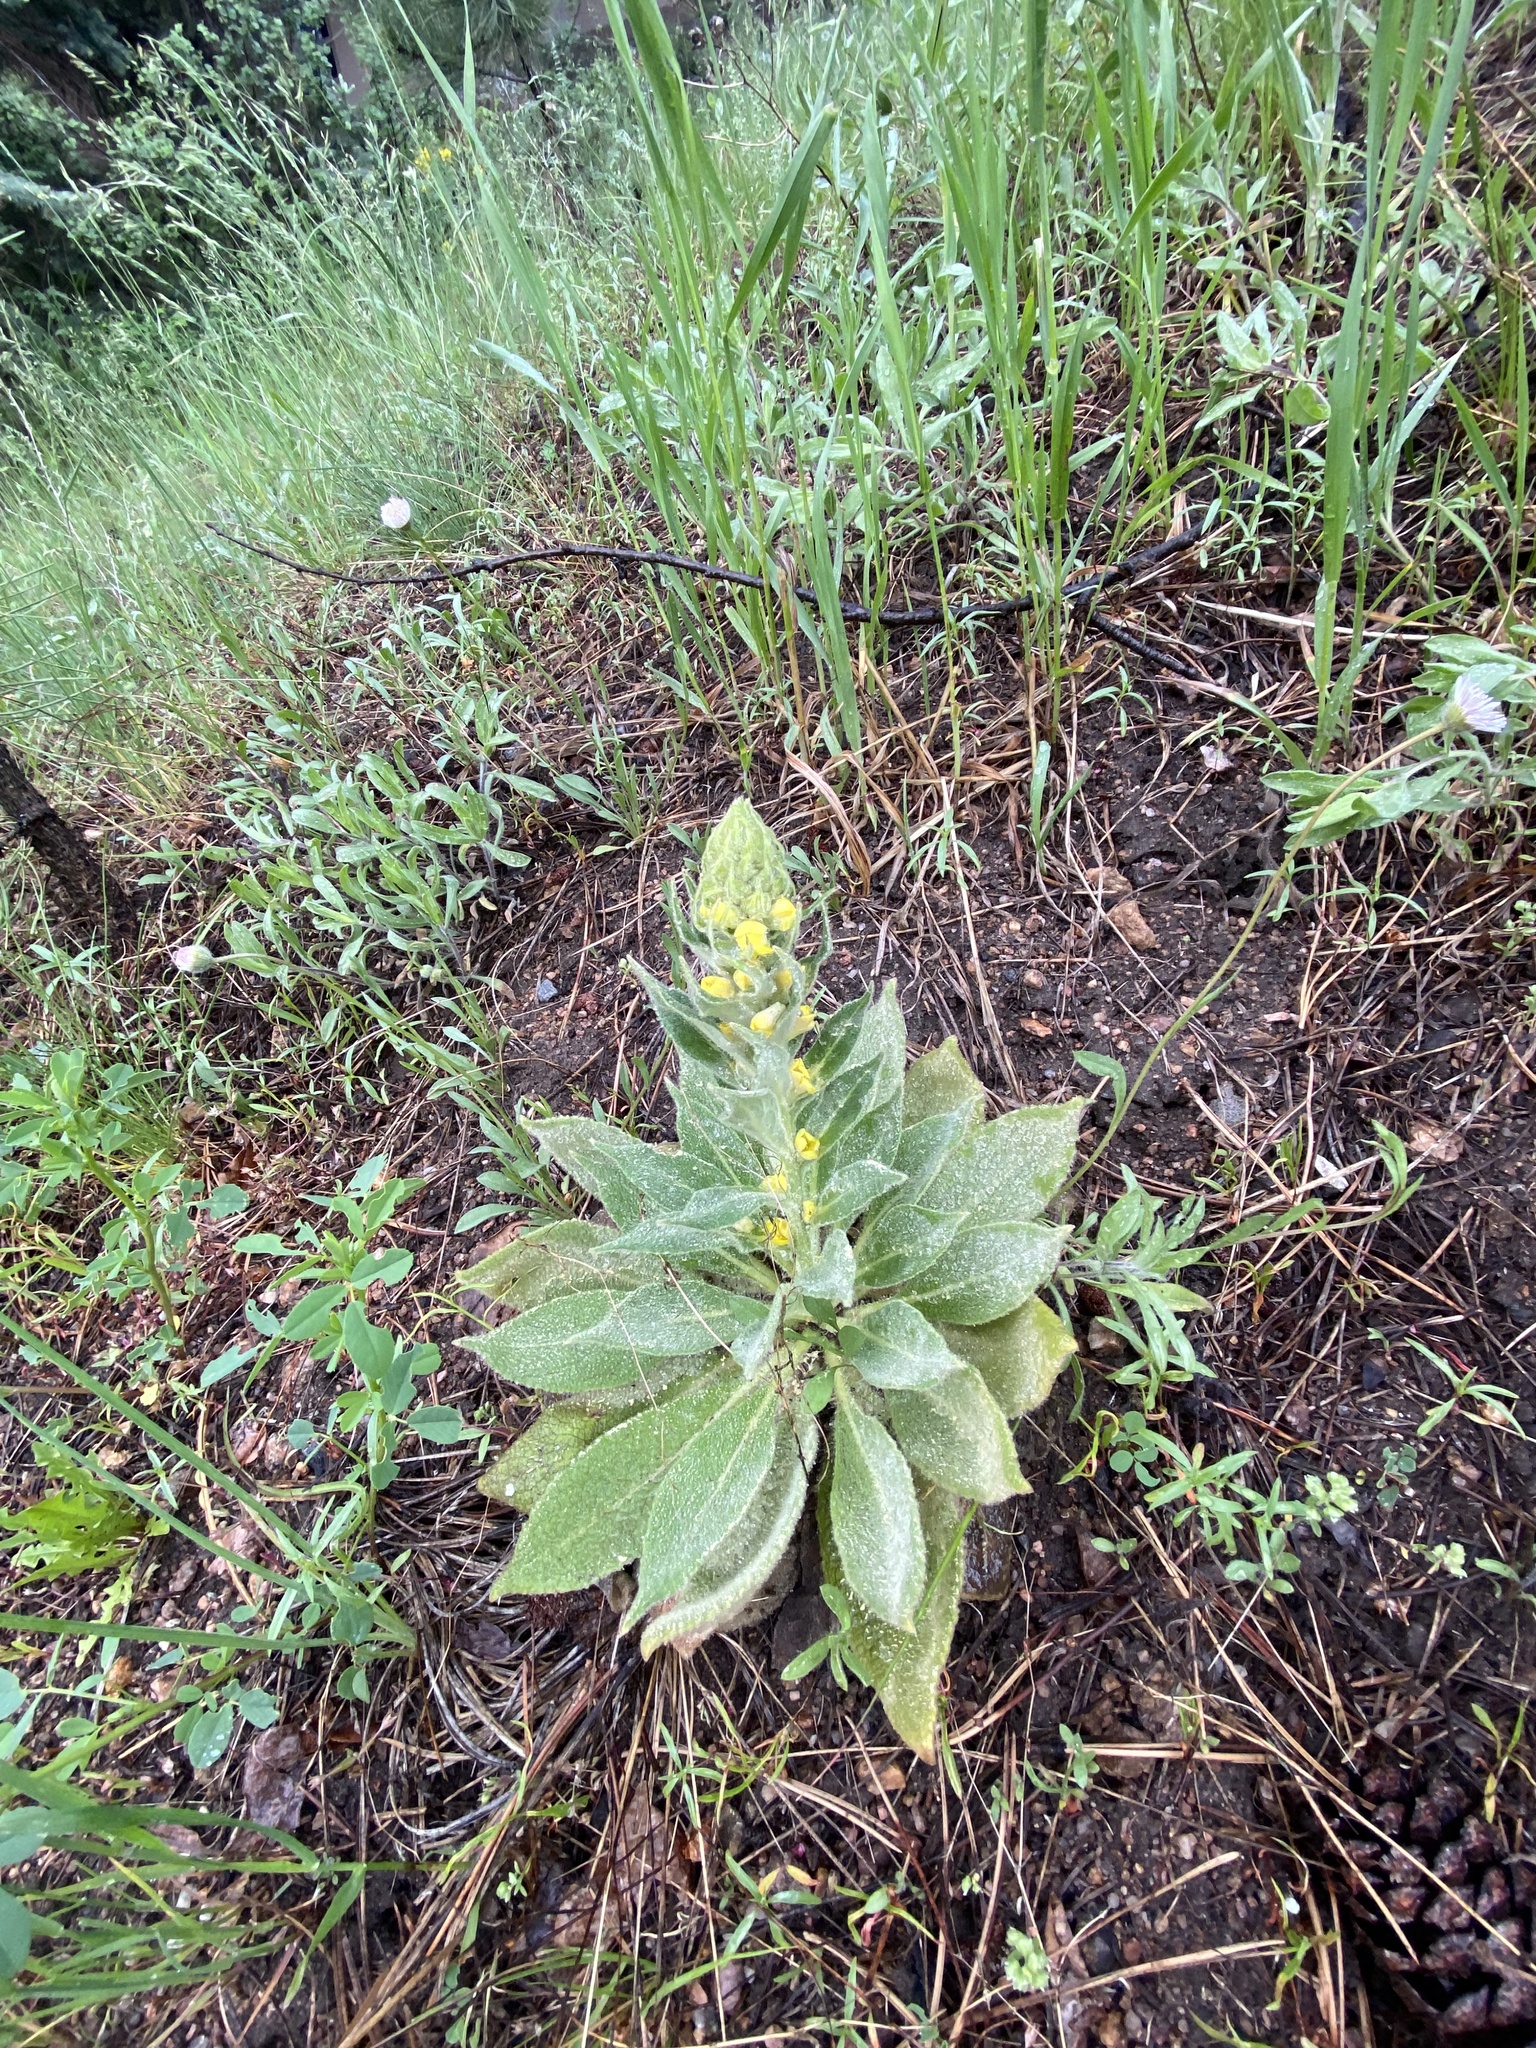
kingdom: Plantae
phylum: Tracheophyta
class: Magnoliopsida
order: Lamiales
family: Scrophulariaceae
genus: Verbascum
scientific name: Verbascum thapsus
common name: Common mullein
